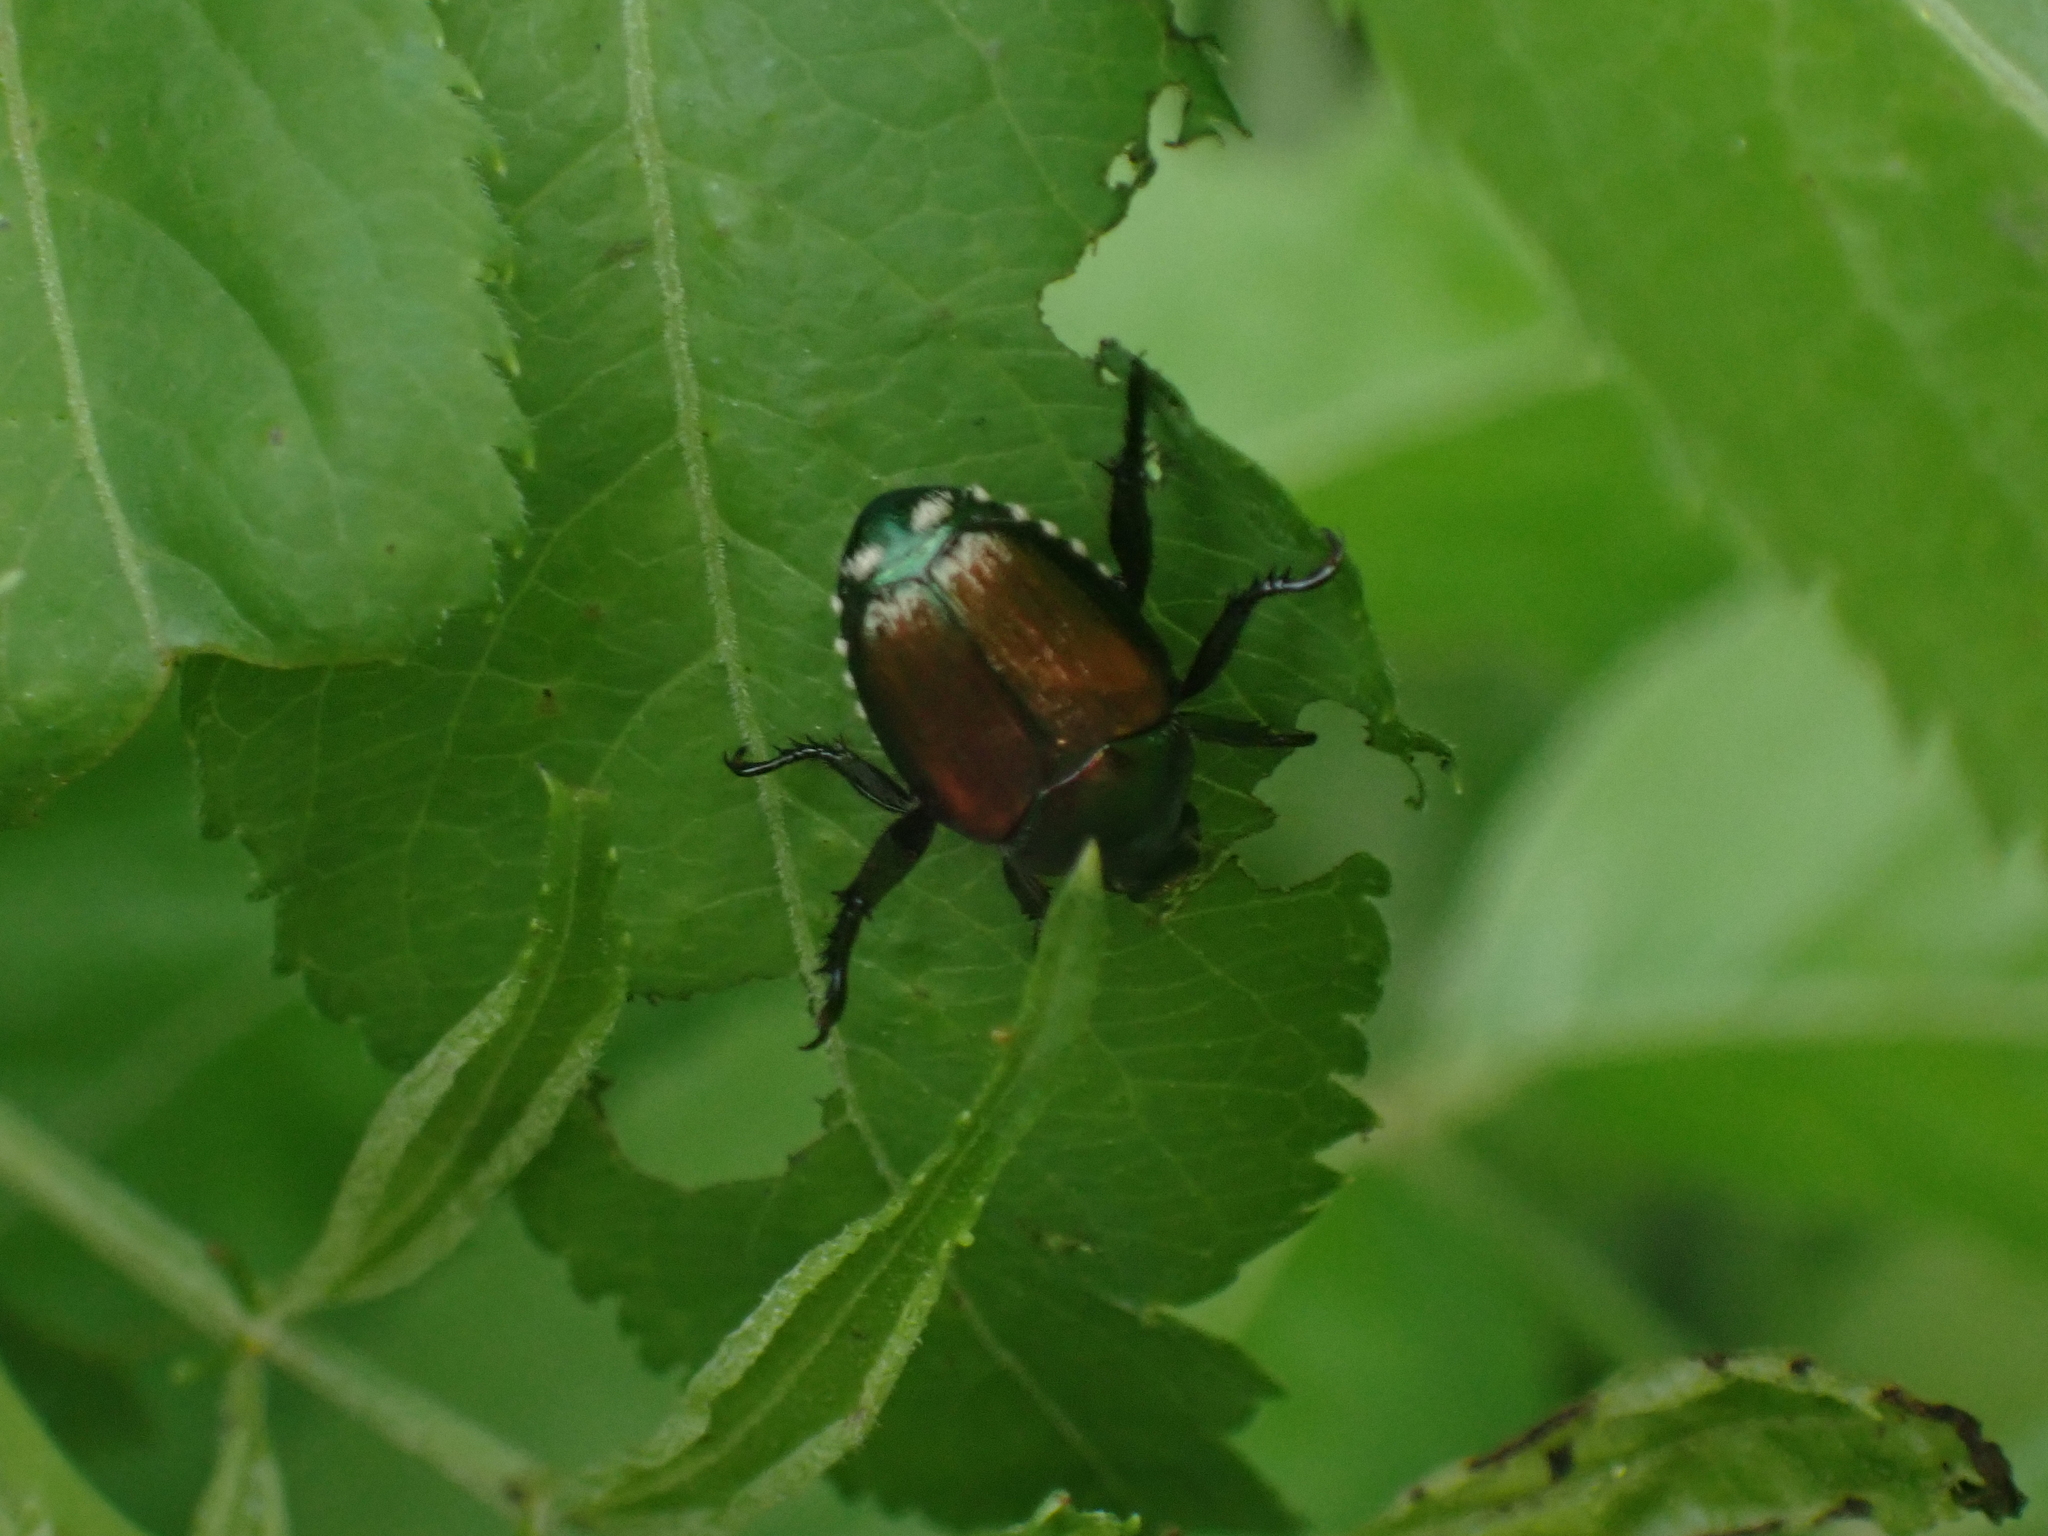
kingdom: Animalia
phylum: Arthropoda
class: Insecta
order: Coleoptera
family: Scarabaeidae
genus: Popillia
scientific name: Popillia japonica
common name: Japanese beetle
